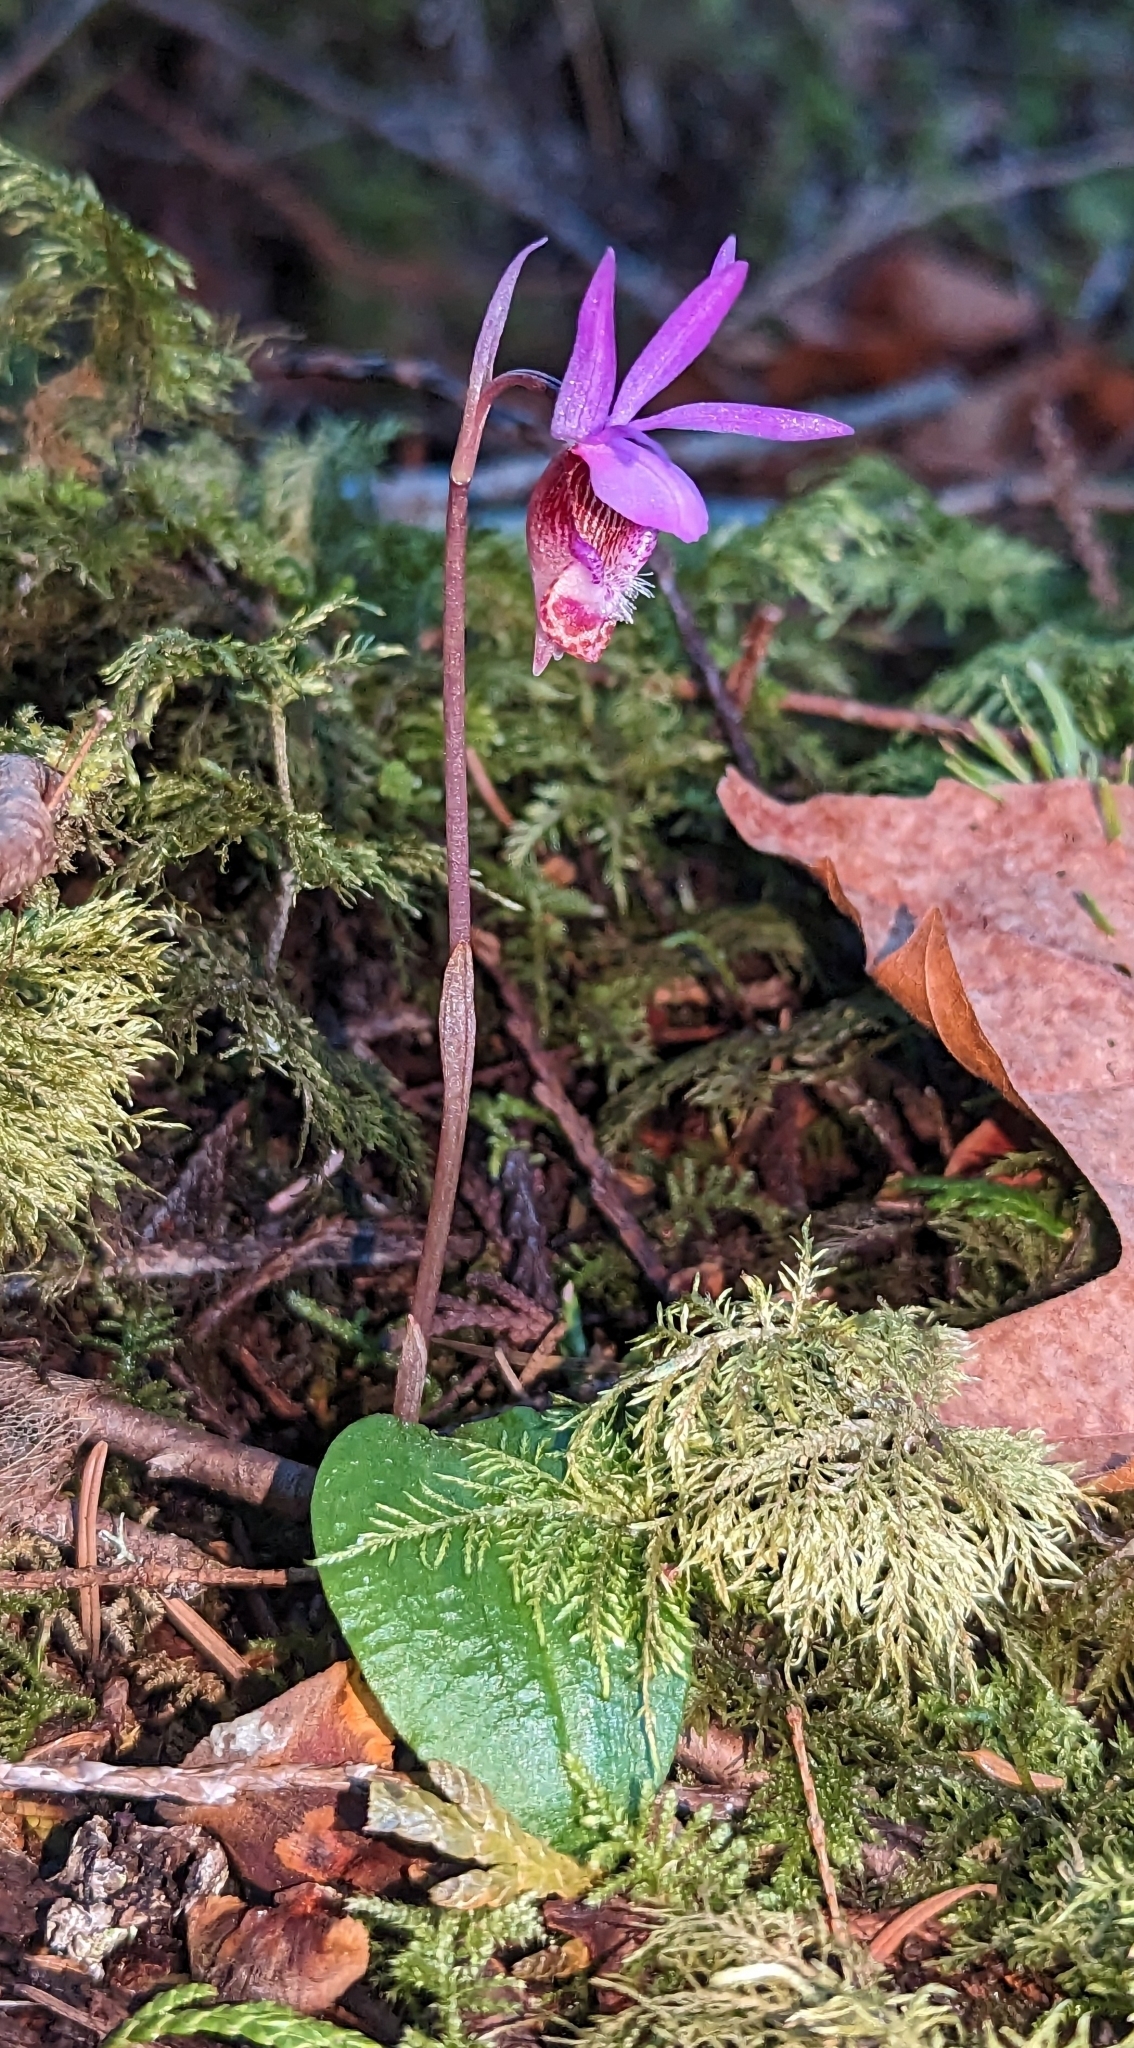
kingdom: Plantae
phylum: Tracheophyta
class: Liliopsida
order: Asparagales
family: Orchidaceae
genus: Calypso
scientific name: Calypso bulbosa
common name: Calypso
